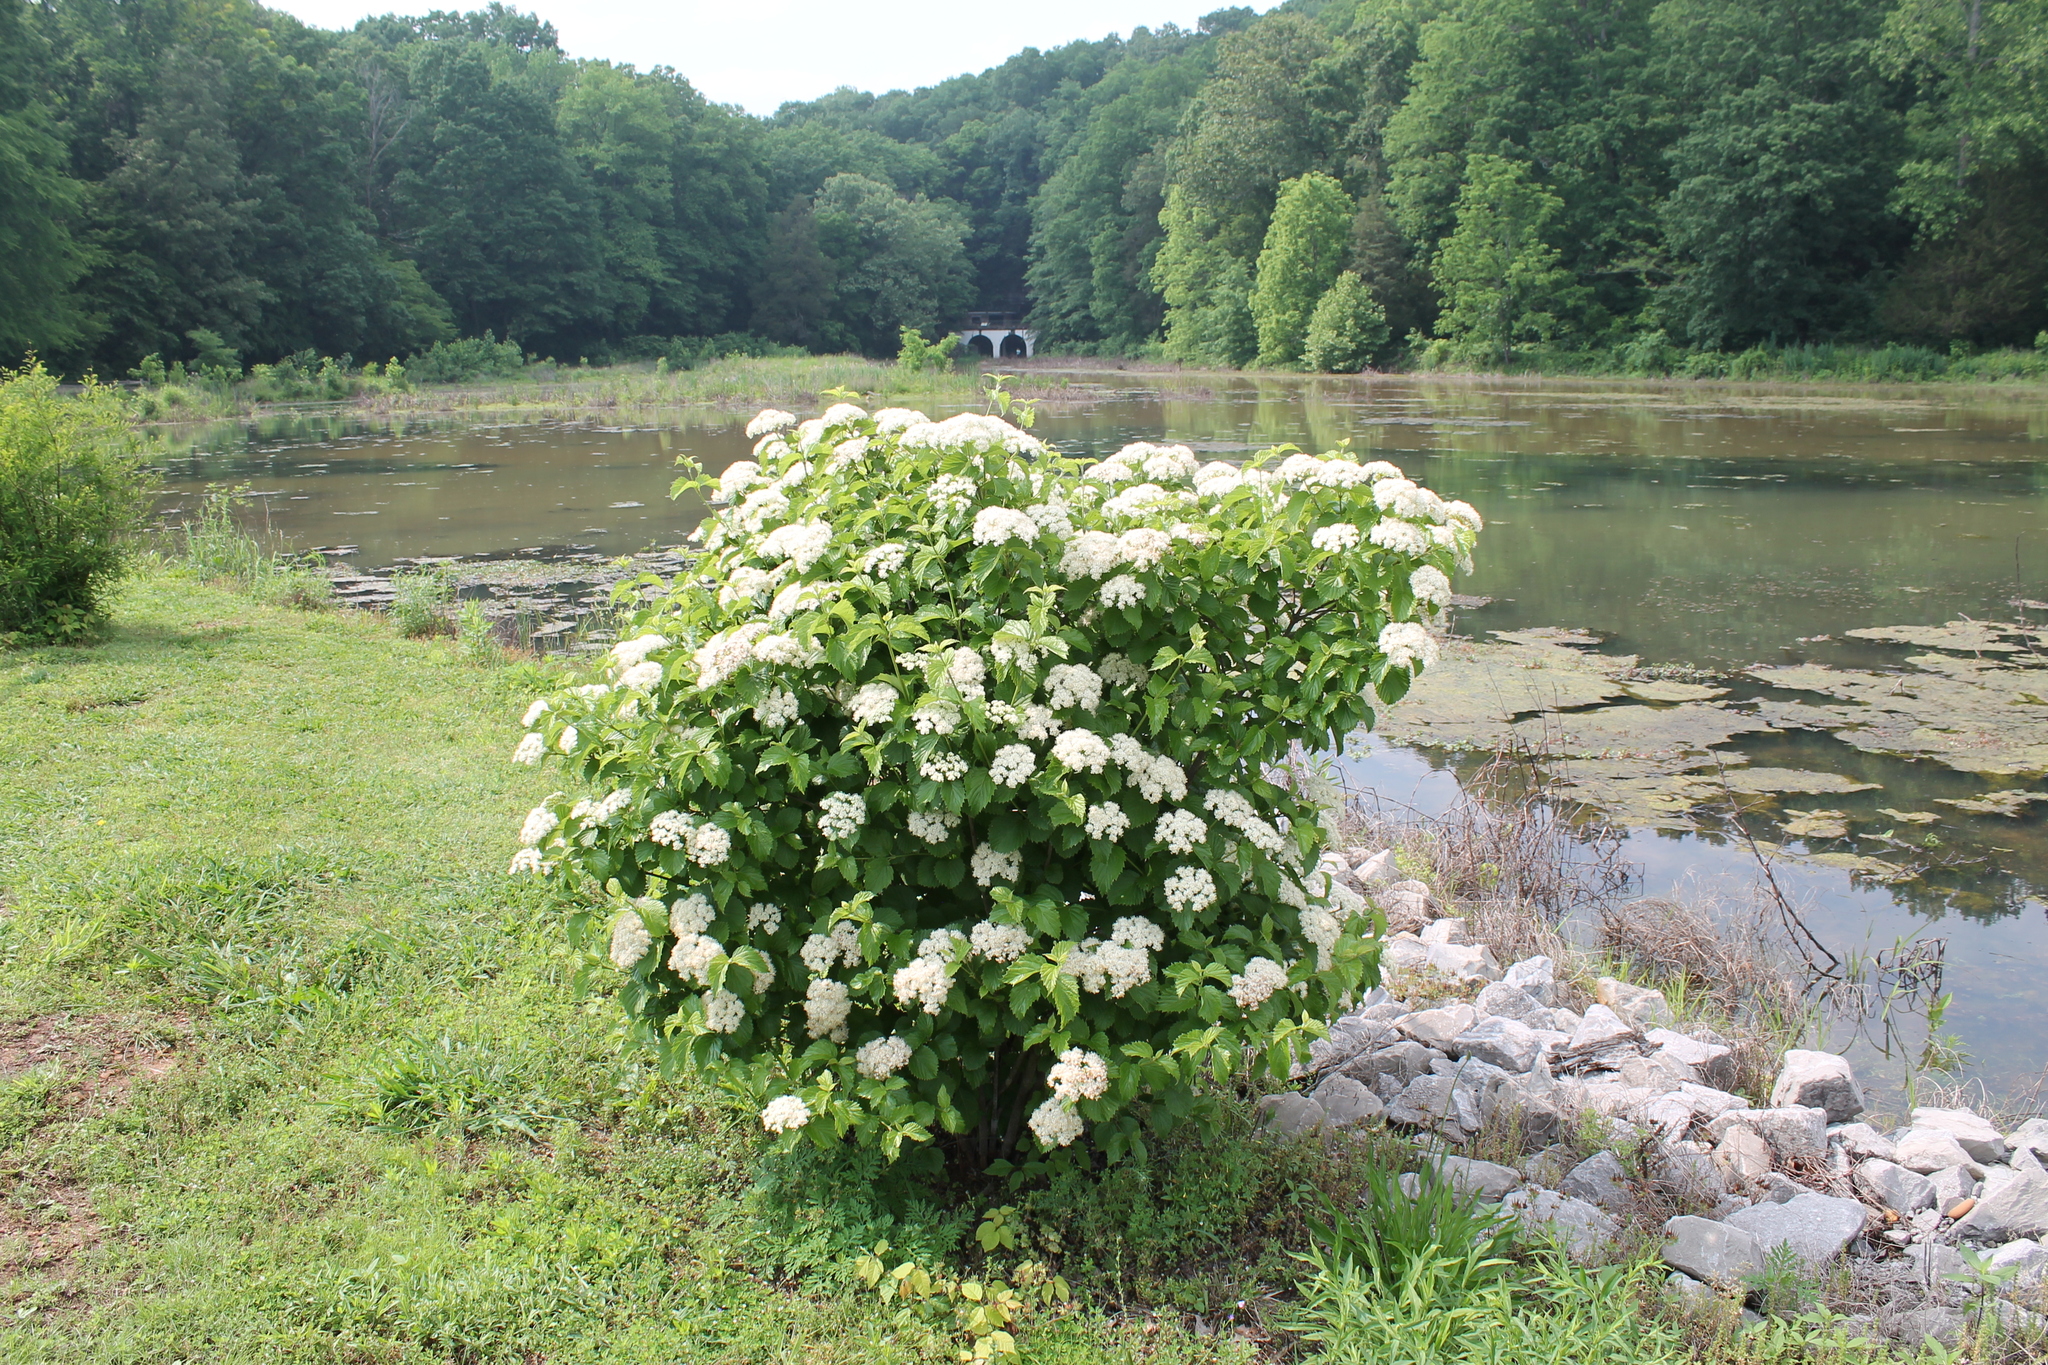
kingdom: Plantae
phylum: Tracheophyta
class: Magnoliopsida
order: Dipsacales
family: Viburnaceae
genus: Viburnum
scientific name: Viburnum dentatum
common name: Arrow-wood
